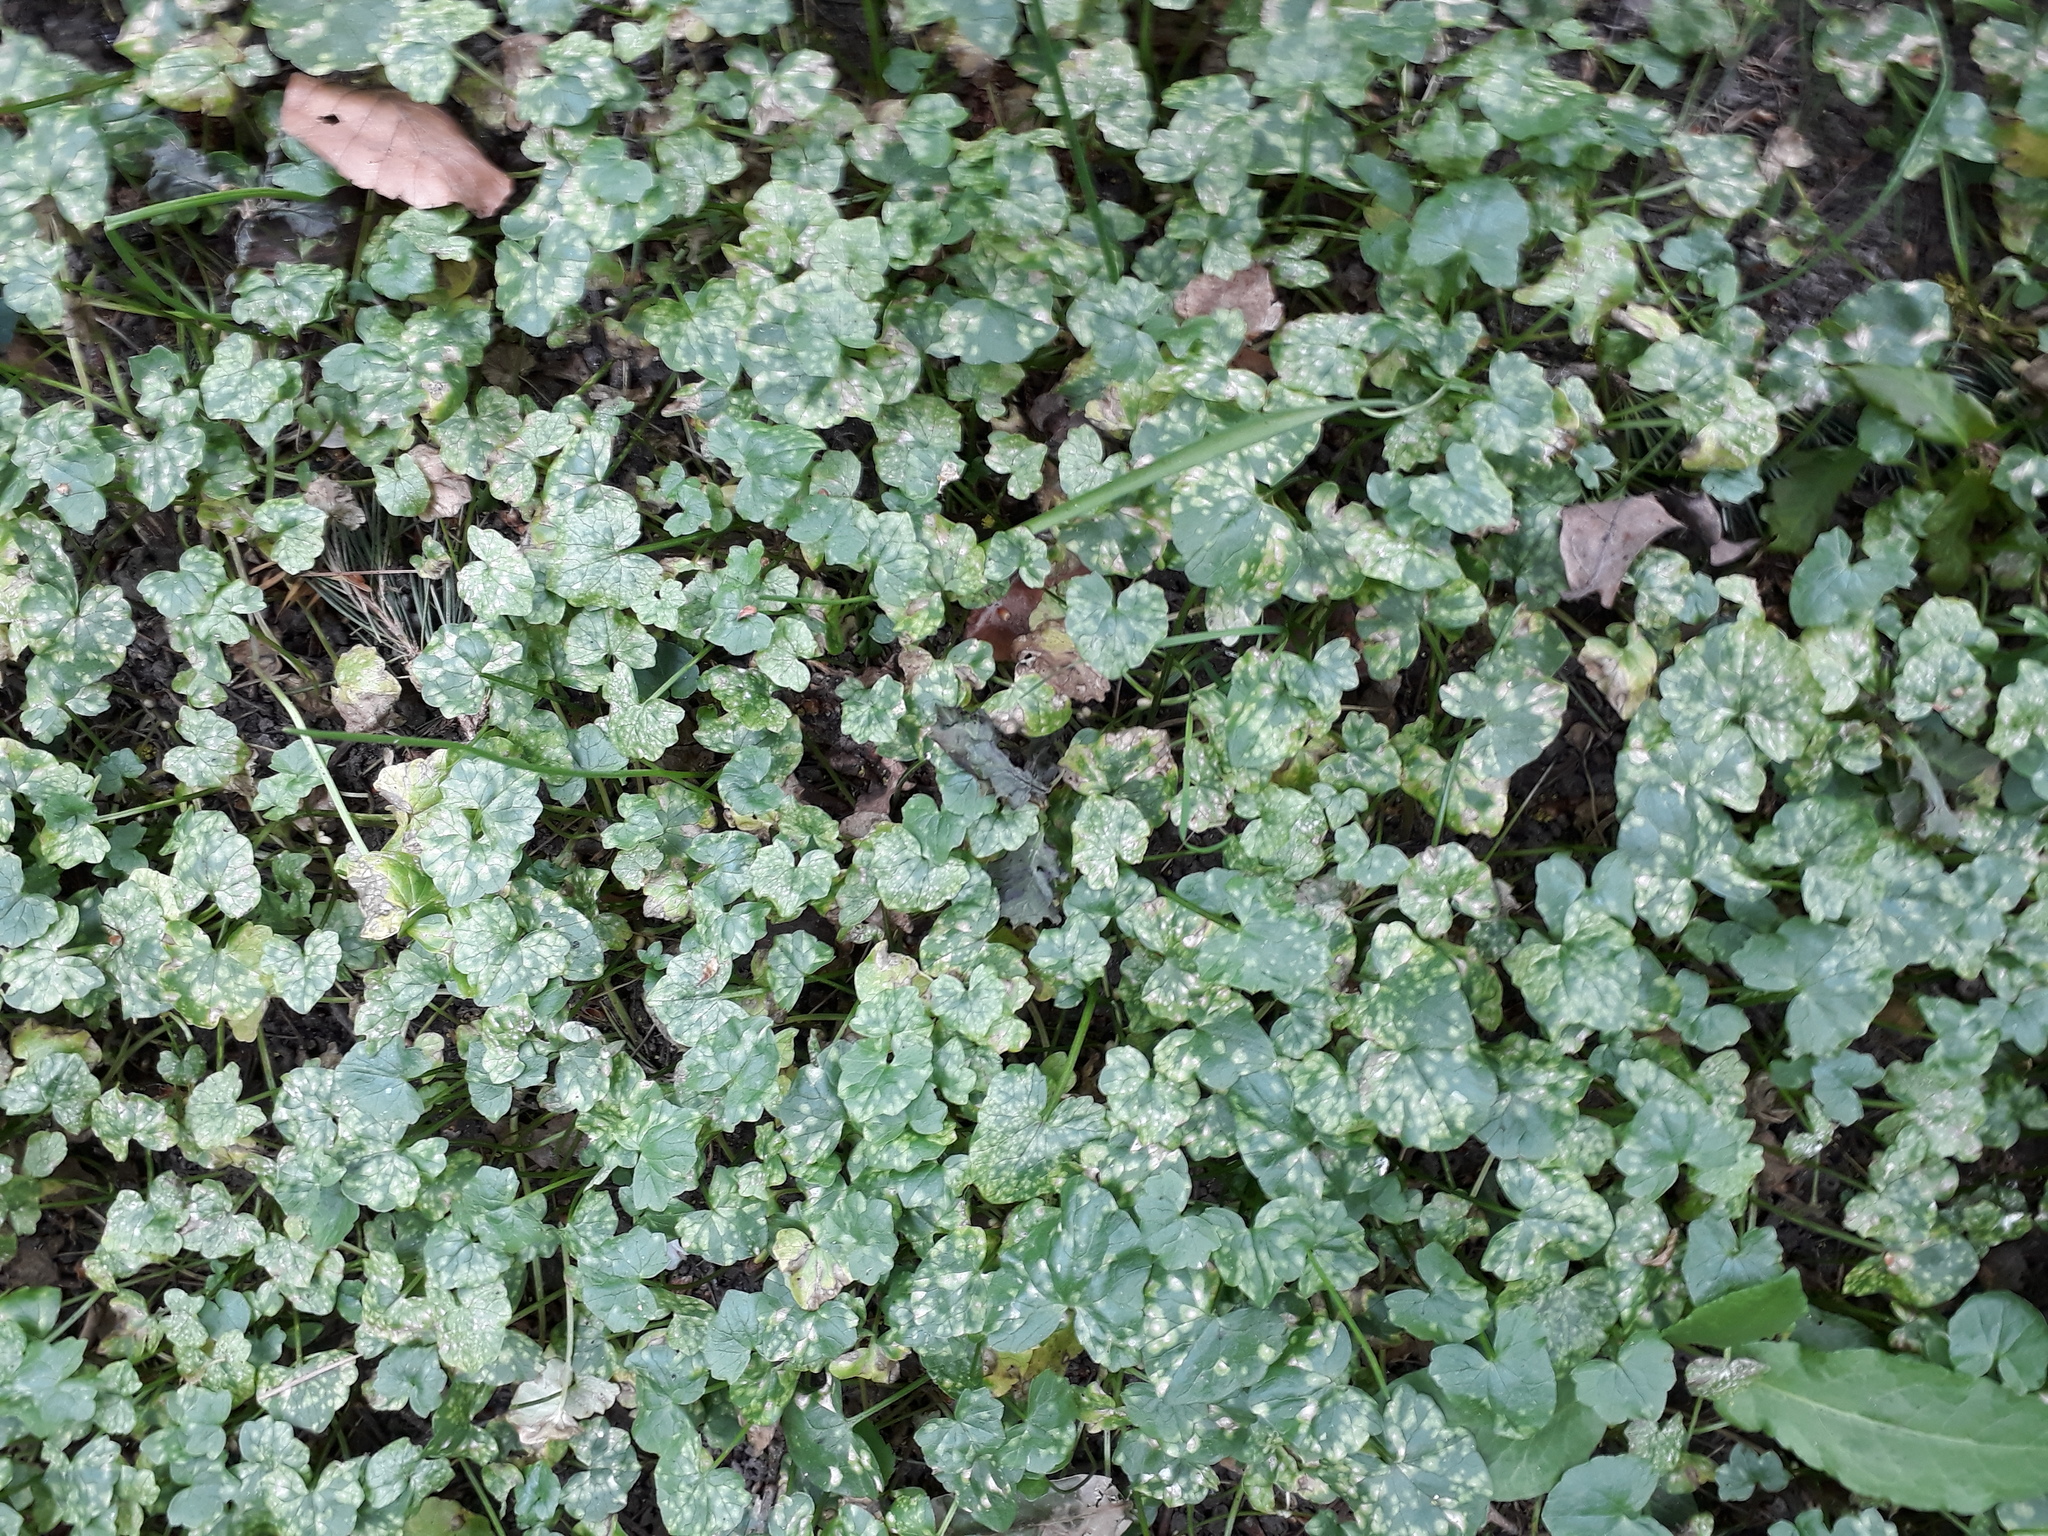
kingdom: Plantae
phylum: Tracheophyta
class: Magnoliopsida
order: Ranunculales
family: Ranunculaceae
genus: Ficaria
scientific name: Ficaria verna
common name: Lesser celandine
